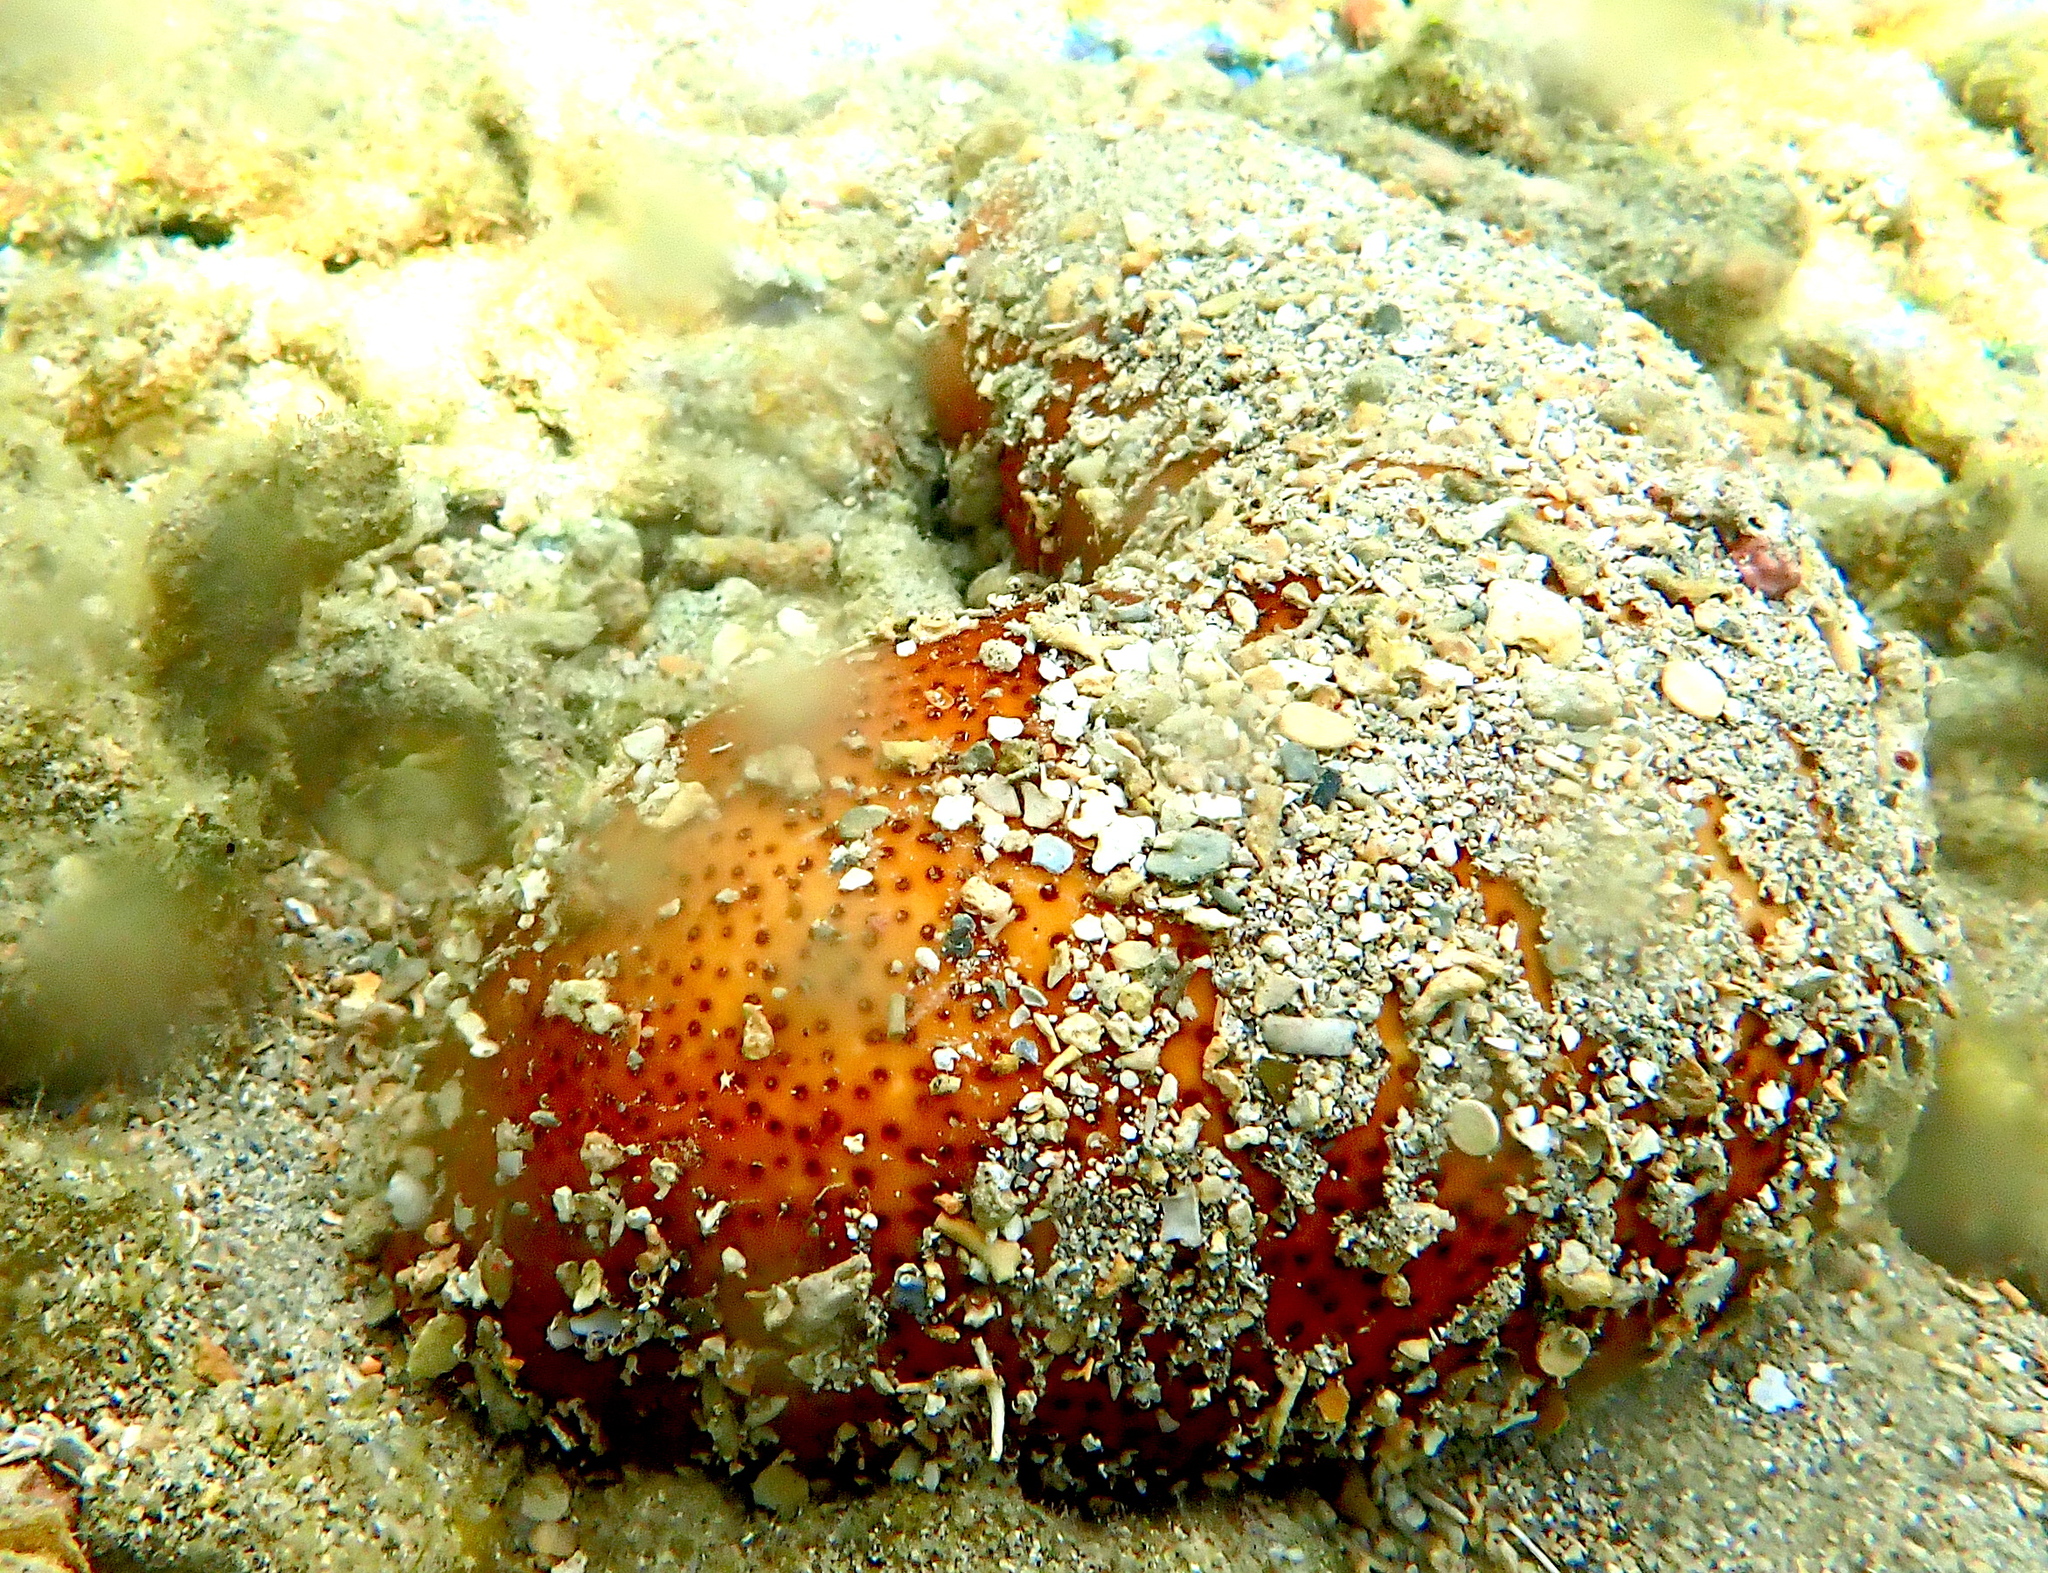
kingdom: Animalia
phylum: Echinodermata
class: Holothuroidea
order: Holothuriida
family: Holothuriidae
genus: Bohadschia
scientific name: Bohadschia vitiensis
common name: Brown sandfish
